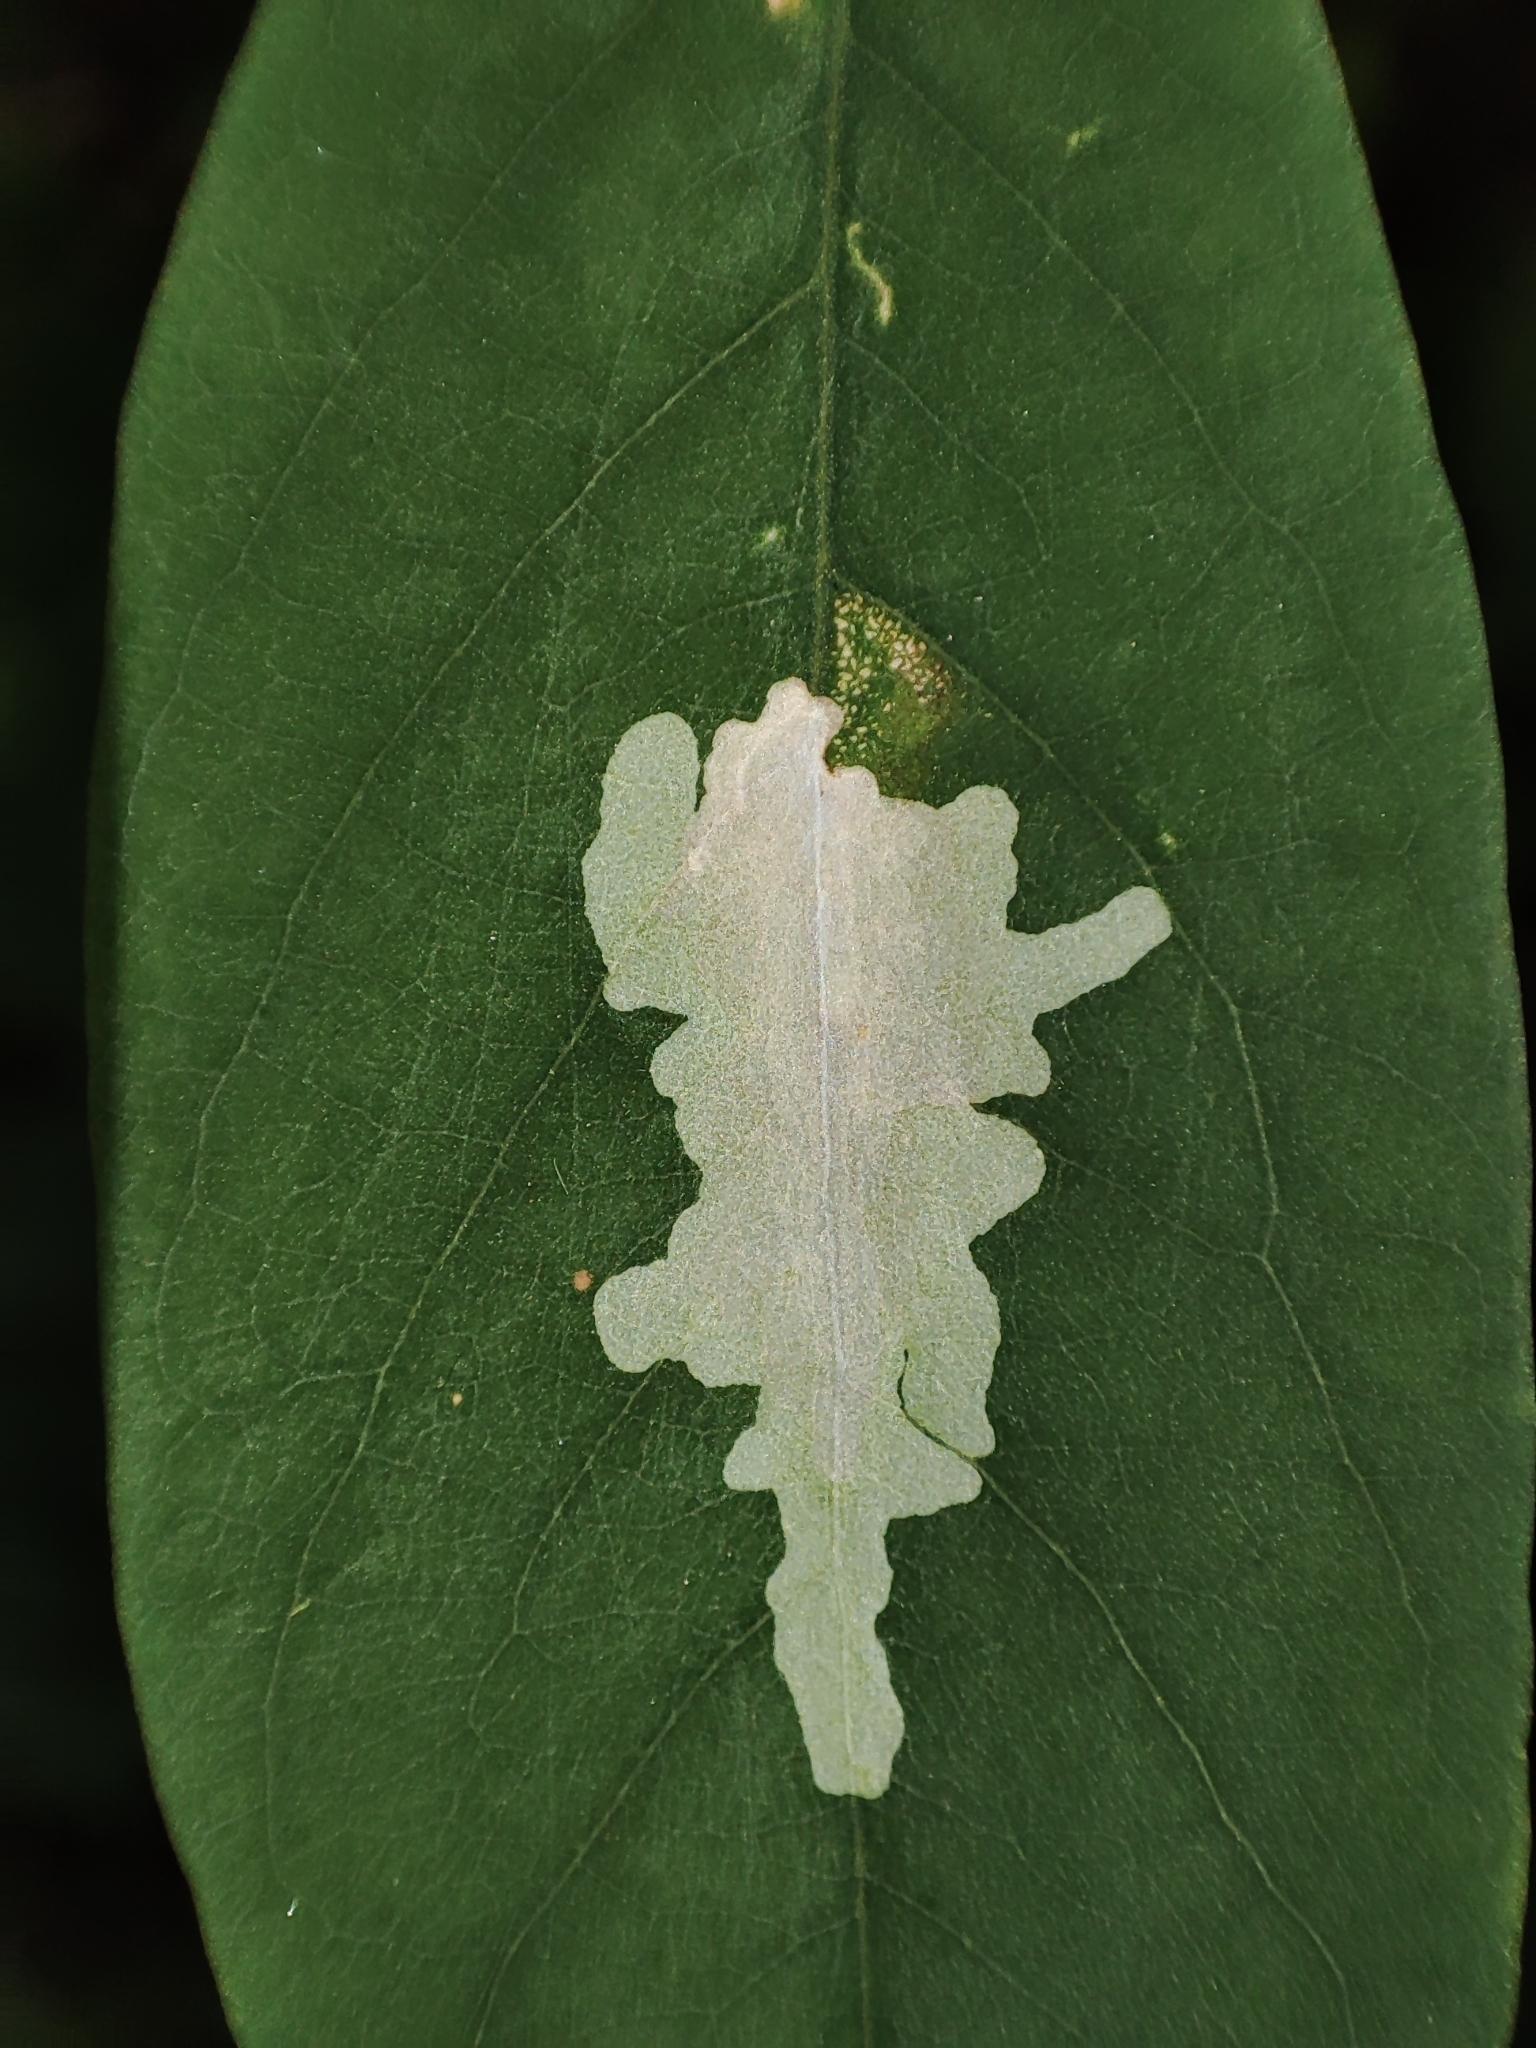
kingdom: Animalia
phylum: Arthropoda
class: Insecta
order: Lepidoptera
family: Gracillariidae
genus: Parectopa
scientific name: Parectopa robiniella
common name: Locust digitate leafminer
